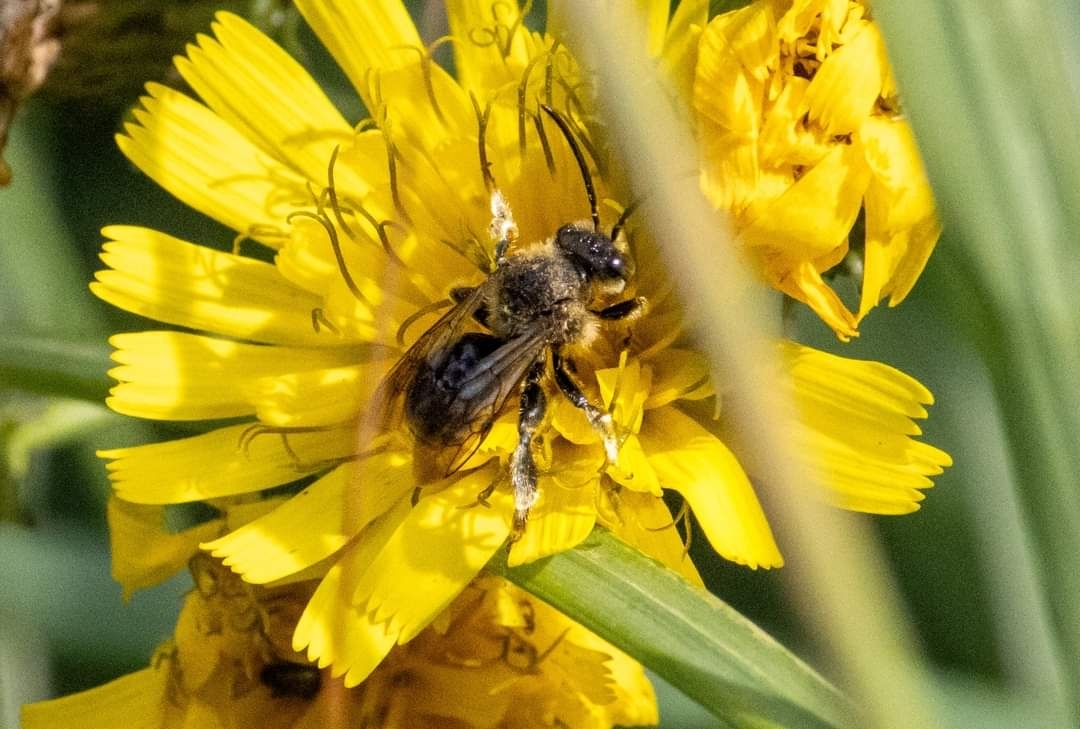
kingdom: Animalia
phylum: Arthropoda
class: Insecta
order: Hymenoptera
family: Melittidae
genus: Macropis
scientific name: Macropis europaea
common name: Yellow loosestrife bee
